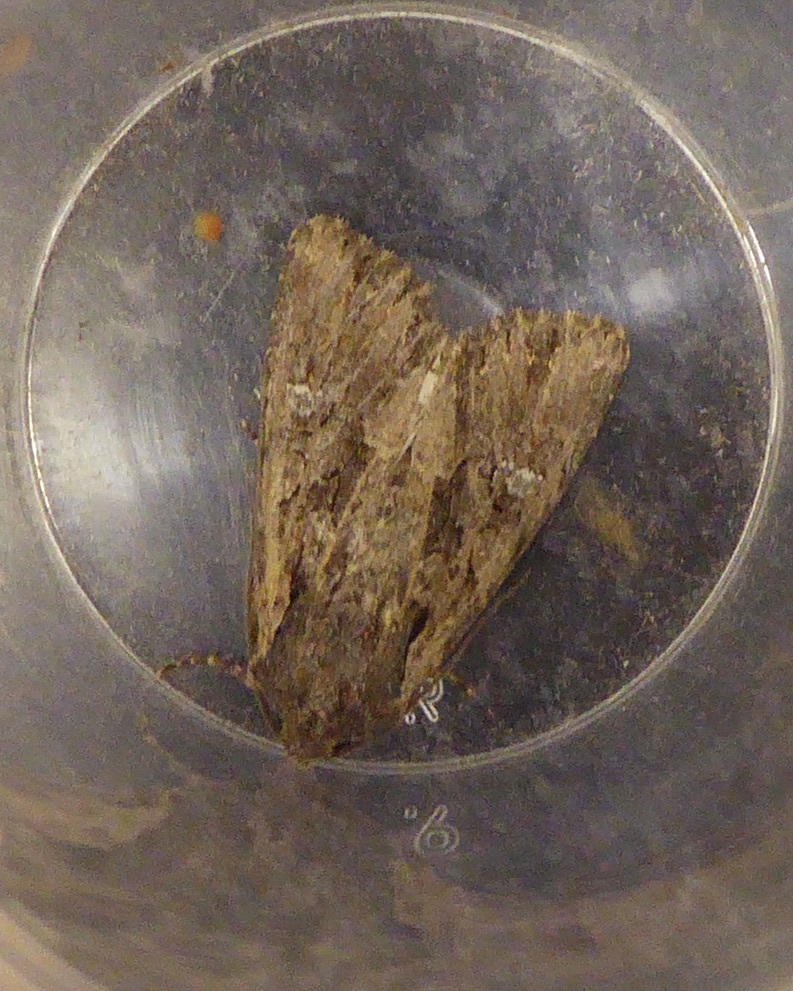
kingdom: Animalia
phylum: Arthropoda
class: Insecta
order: Lepidoptera
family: Noctuidae
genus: Mniotype
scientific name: Mniotype occidentalis
